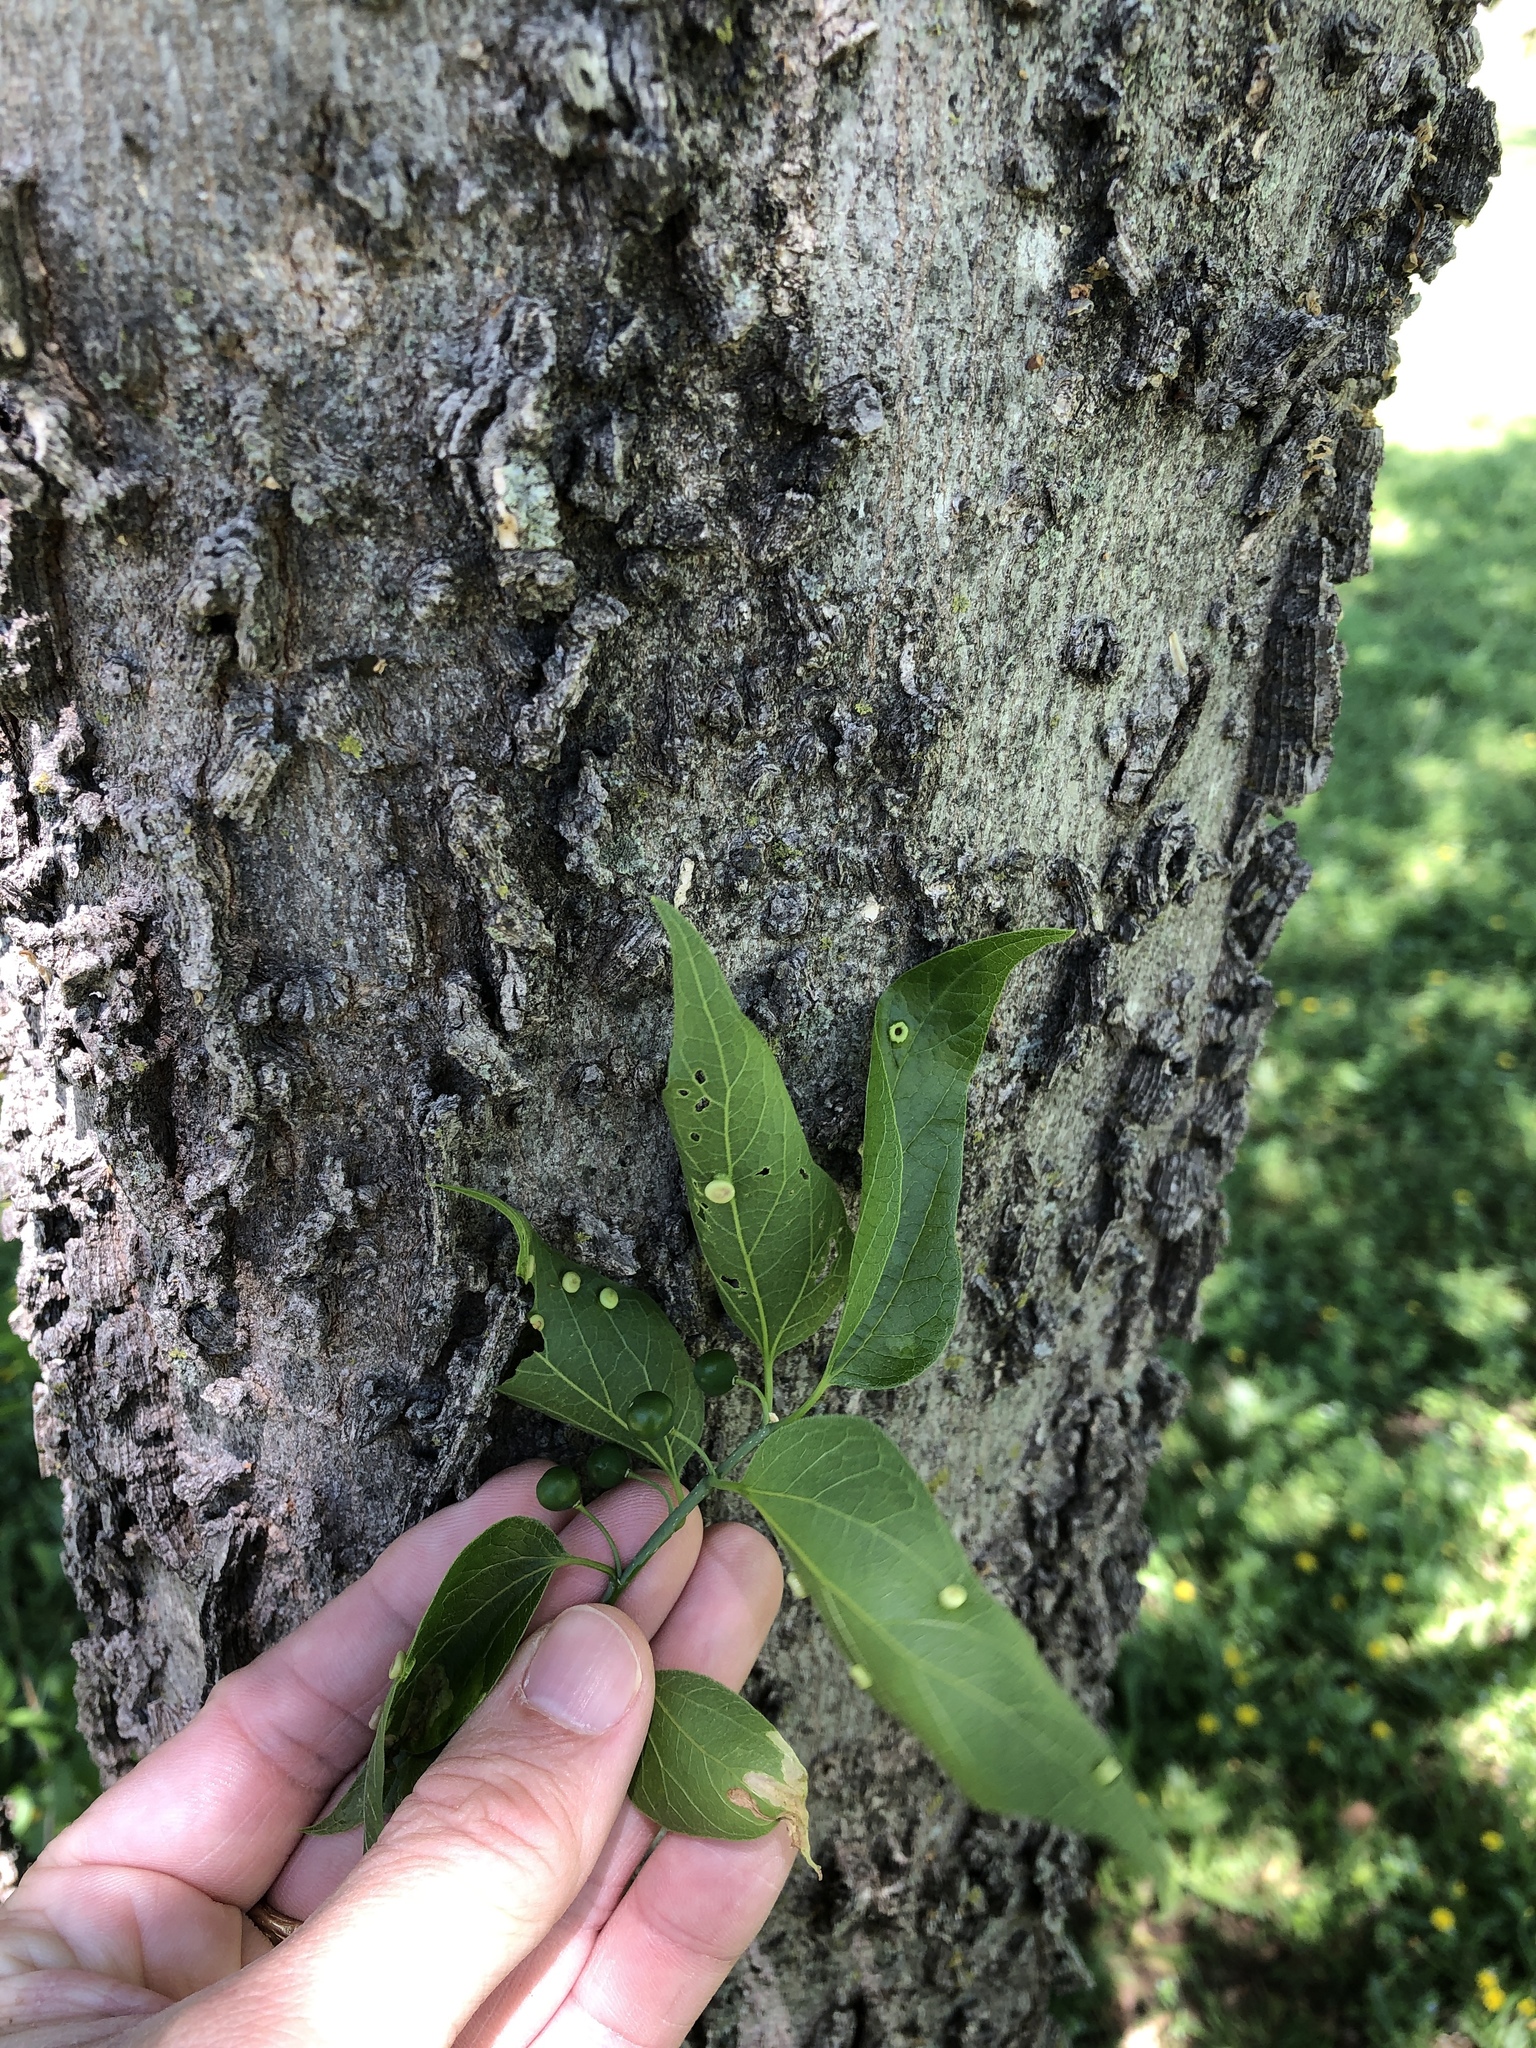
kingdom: Plantae
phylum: Tracheophyta
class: Magnoliopsida
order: Rosales
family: Cannabaceae
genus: Celtis
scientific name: Celtis laevigata
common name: Sugarberry
